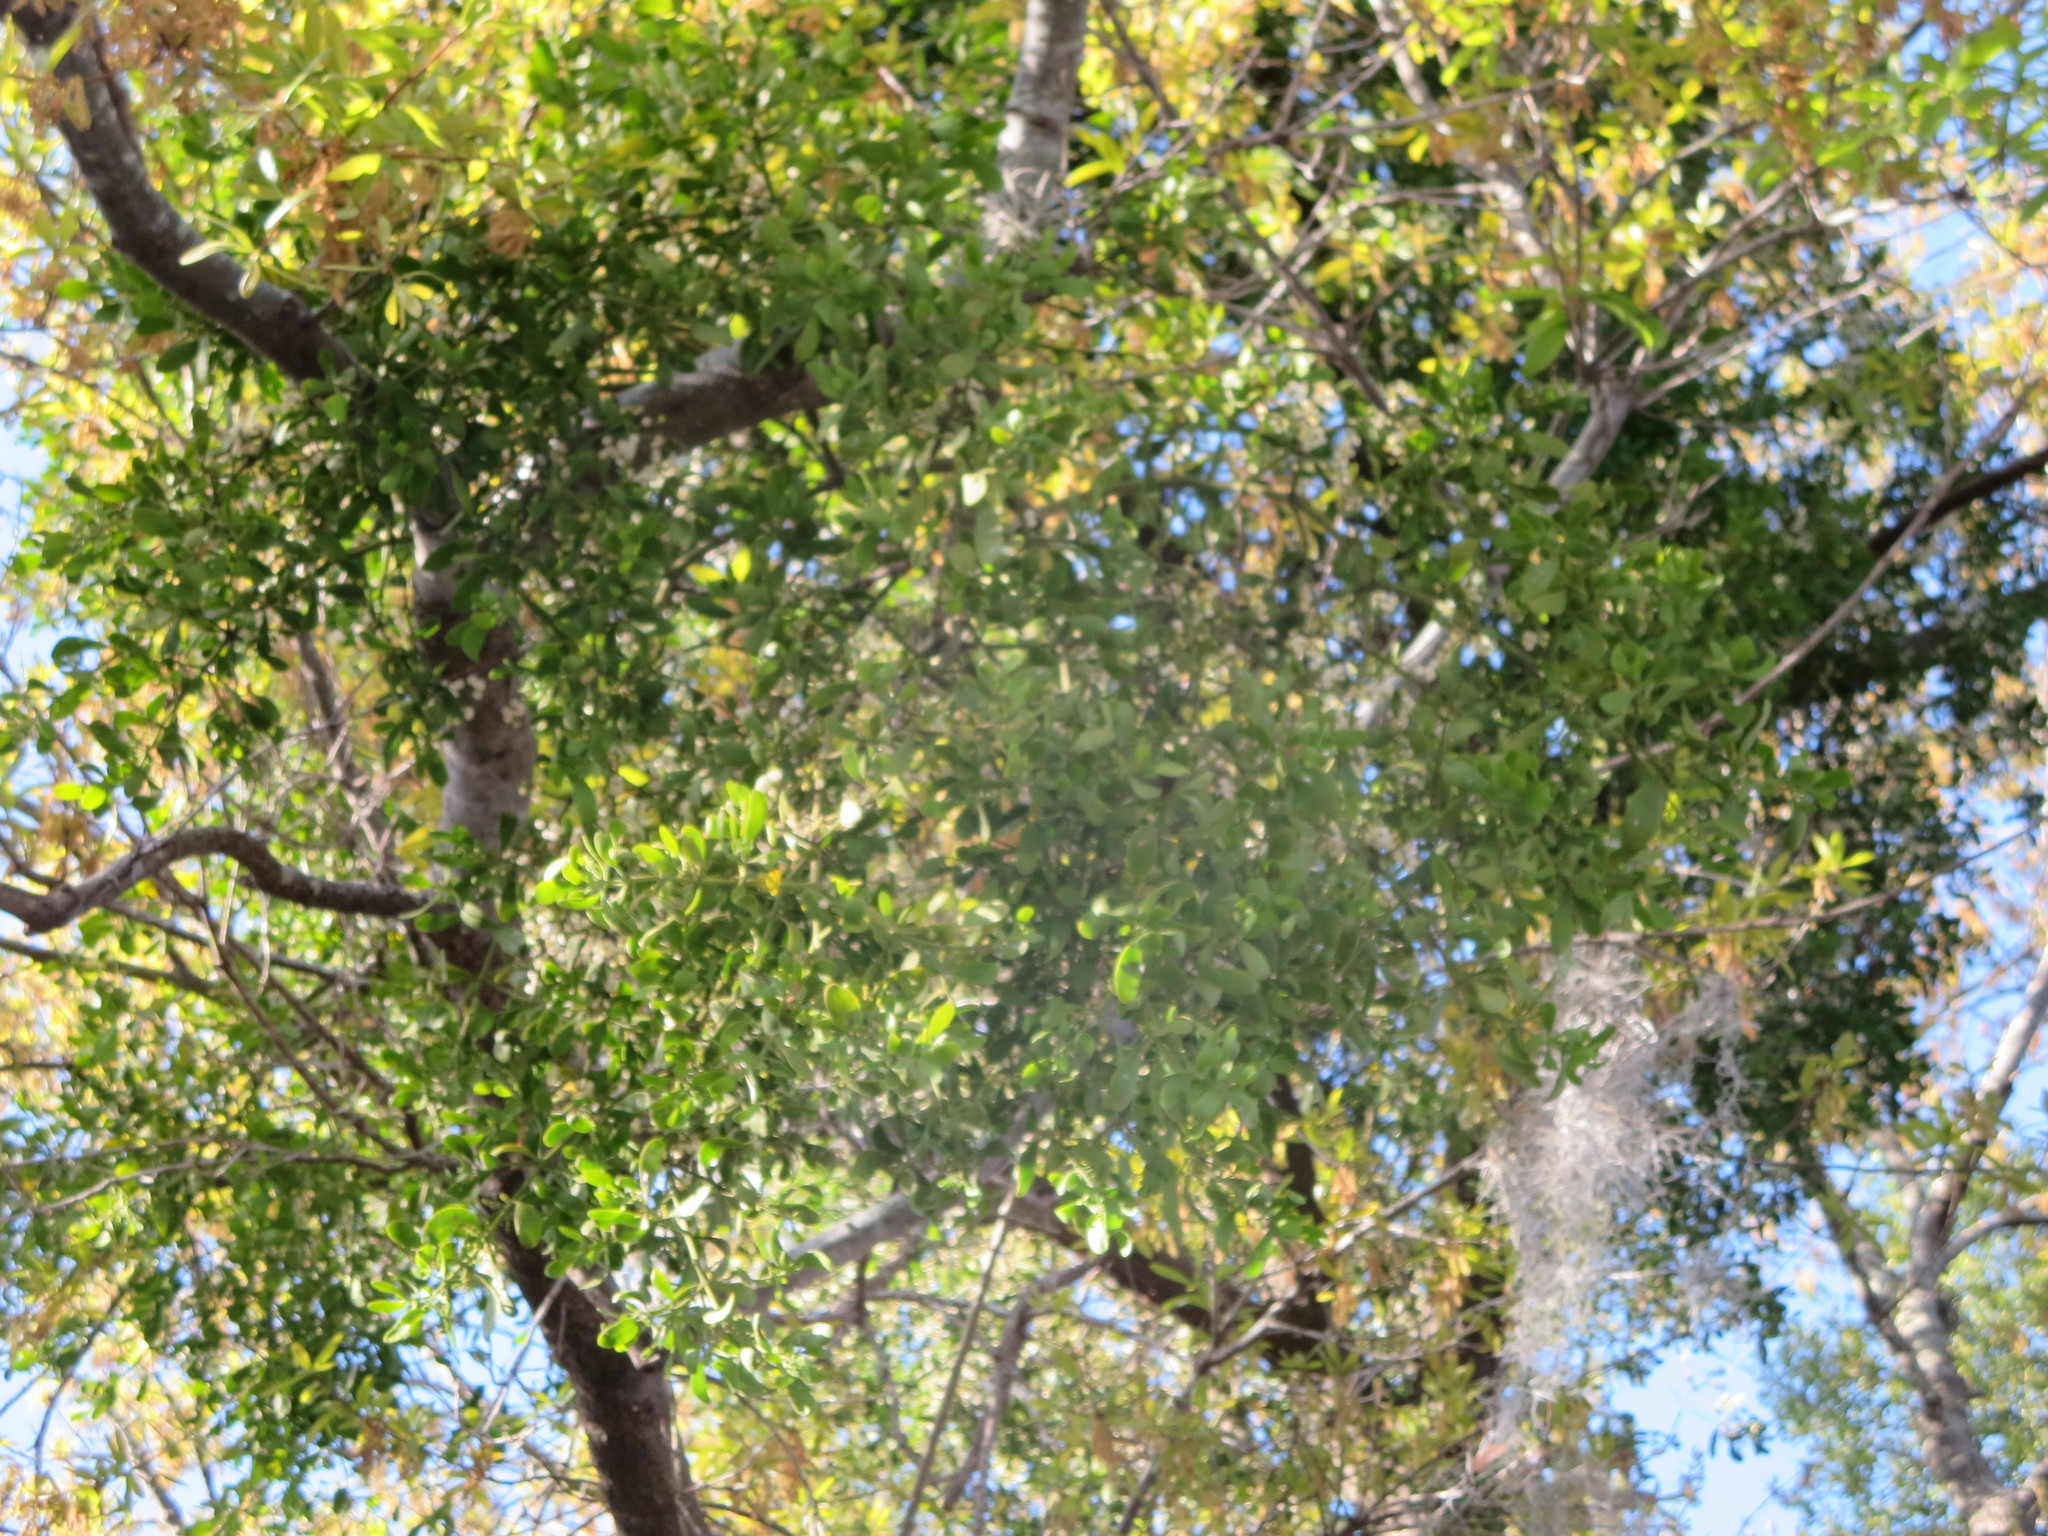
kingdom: Plantae
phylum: Tracheophyta
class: Magnoliopsida
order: Santalales
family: Viscaceae
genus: Phoradendron
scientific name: Phoradendron leucarpum
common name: Pacific mistletoe
